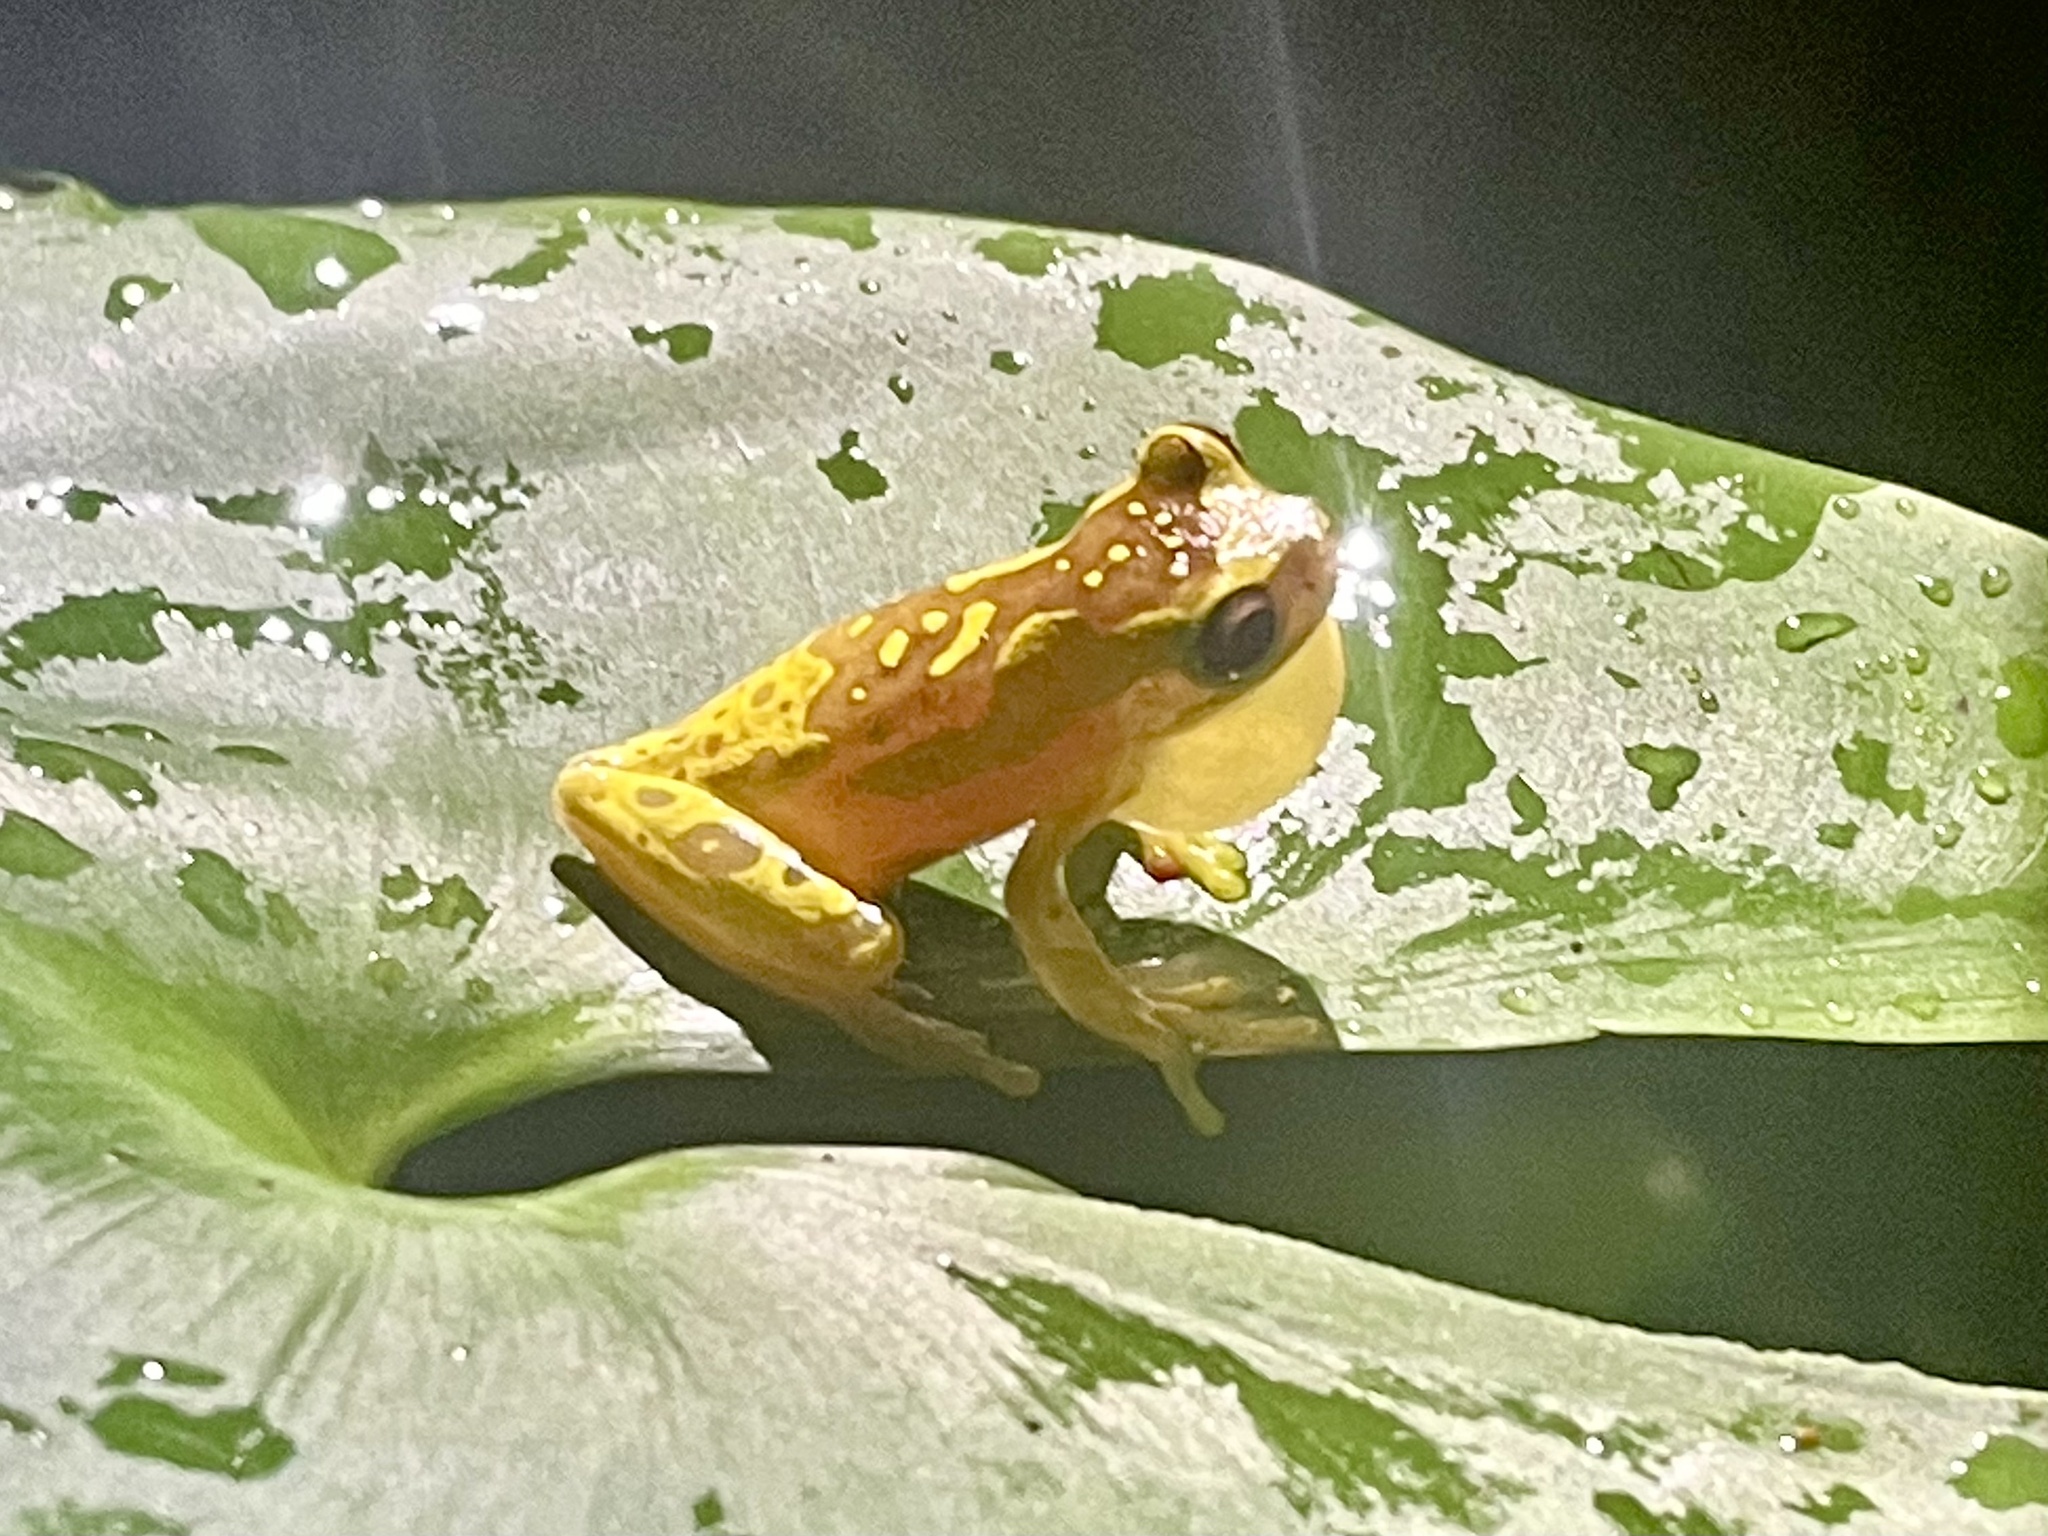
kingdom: Animalia
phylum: Chordata
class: Amphibia
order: Anura
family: Hylidae
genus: Dendropsophus
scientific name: Dendropsophus ebraccatus
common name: Hourglass treefrog
